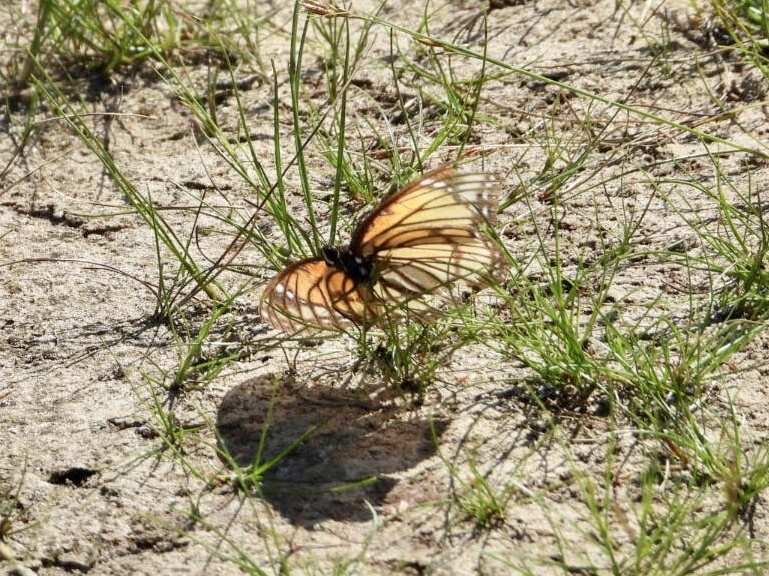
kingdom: Animalia
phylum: Arthropoda
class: Insecta
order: Lepidoptera
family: Nymphalidae
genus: Limenitis
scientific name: Limenitis archippus
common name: Viceroy
